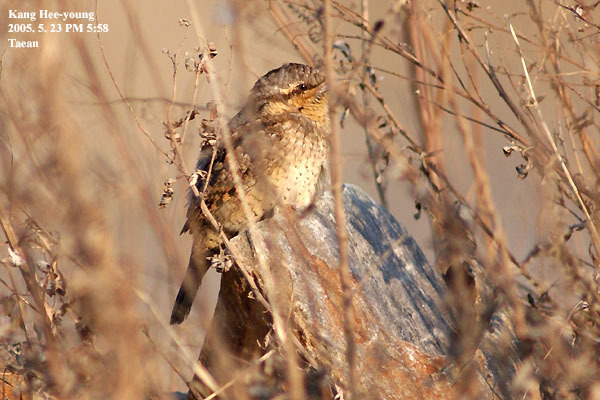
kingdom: Animalia
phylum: Chordata
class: Aves
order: Piciformes
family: Picidae
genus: Jynx
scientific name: Jynx torquilla
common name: Eurasian wryneck
